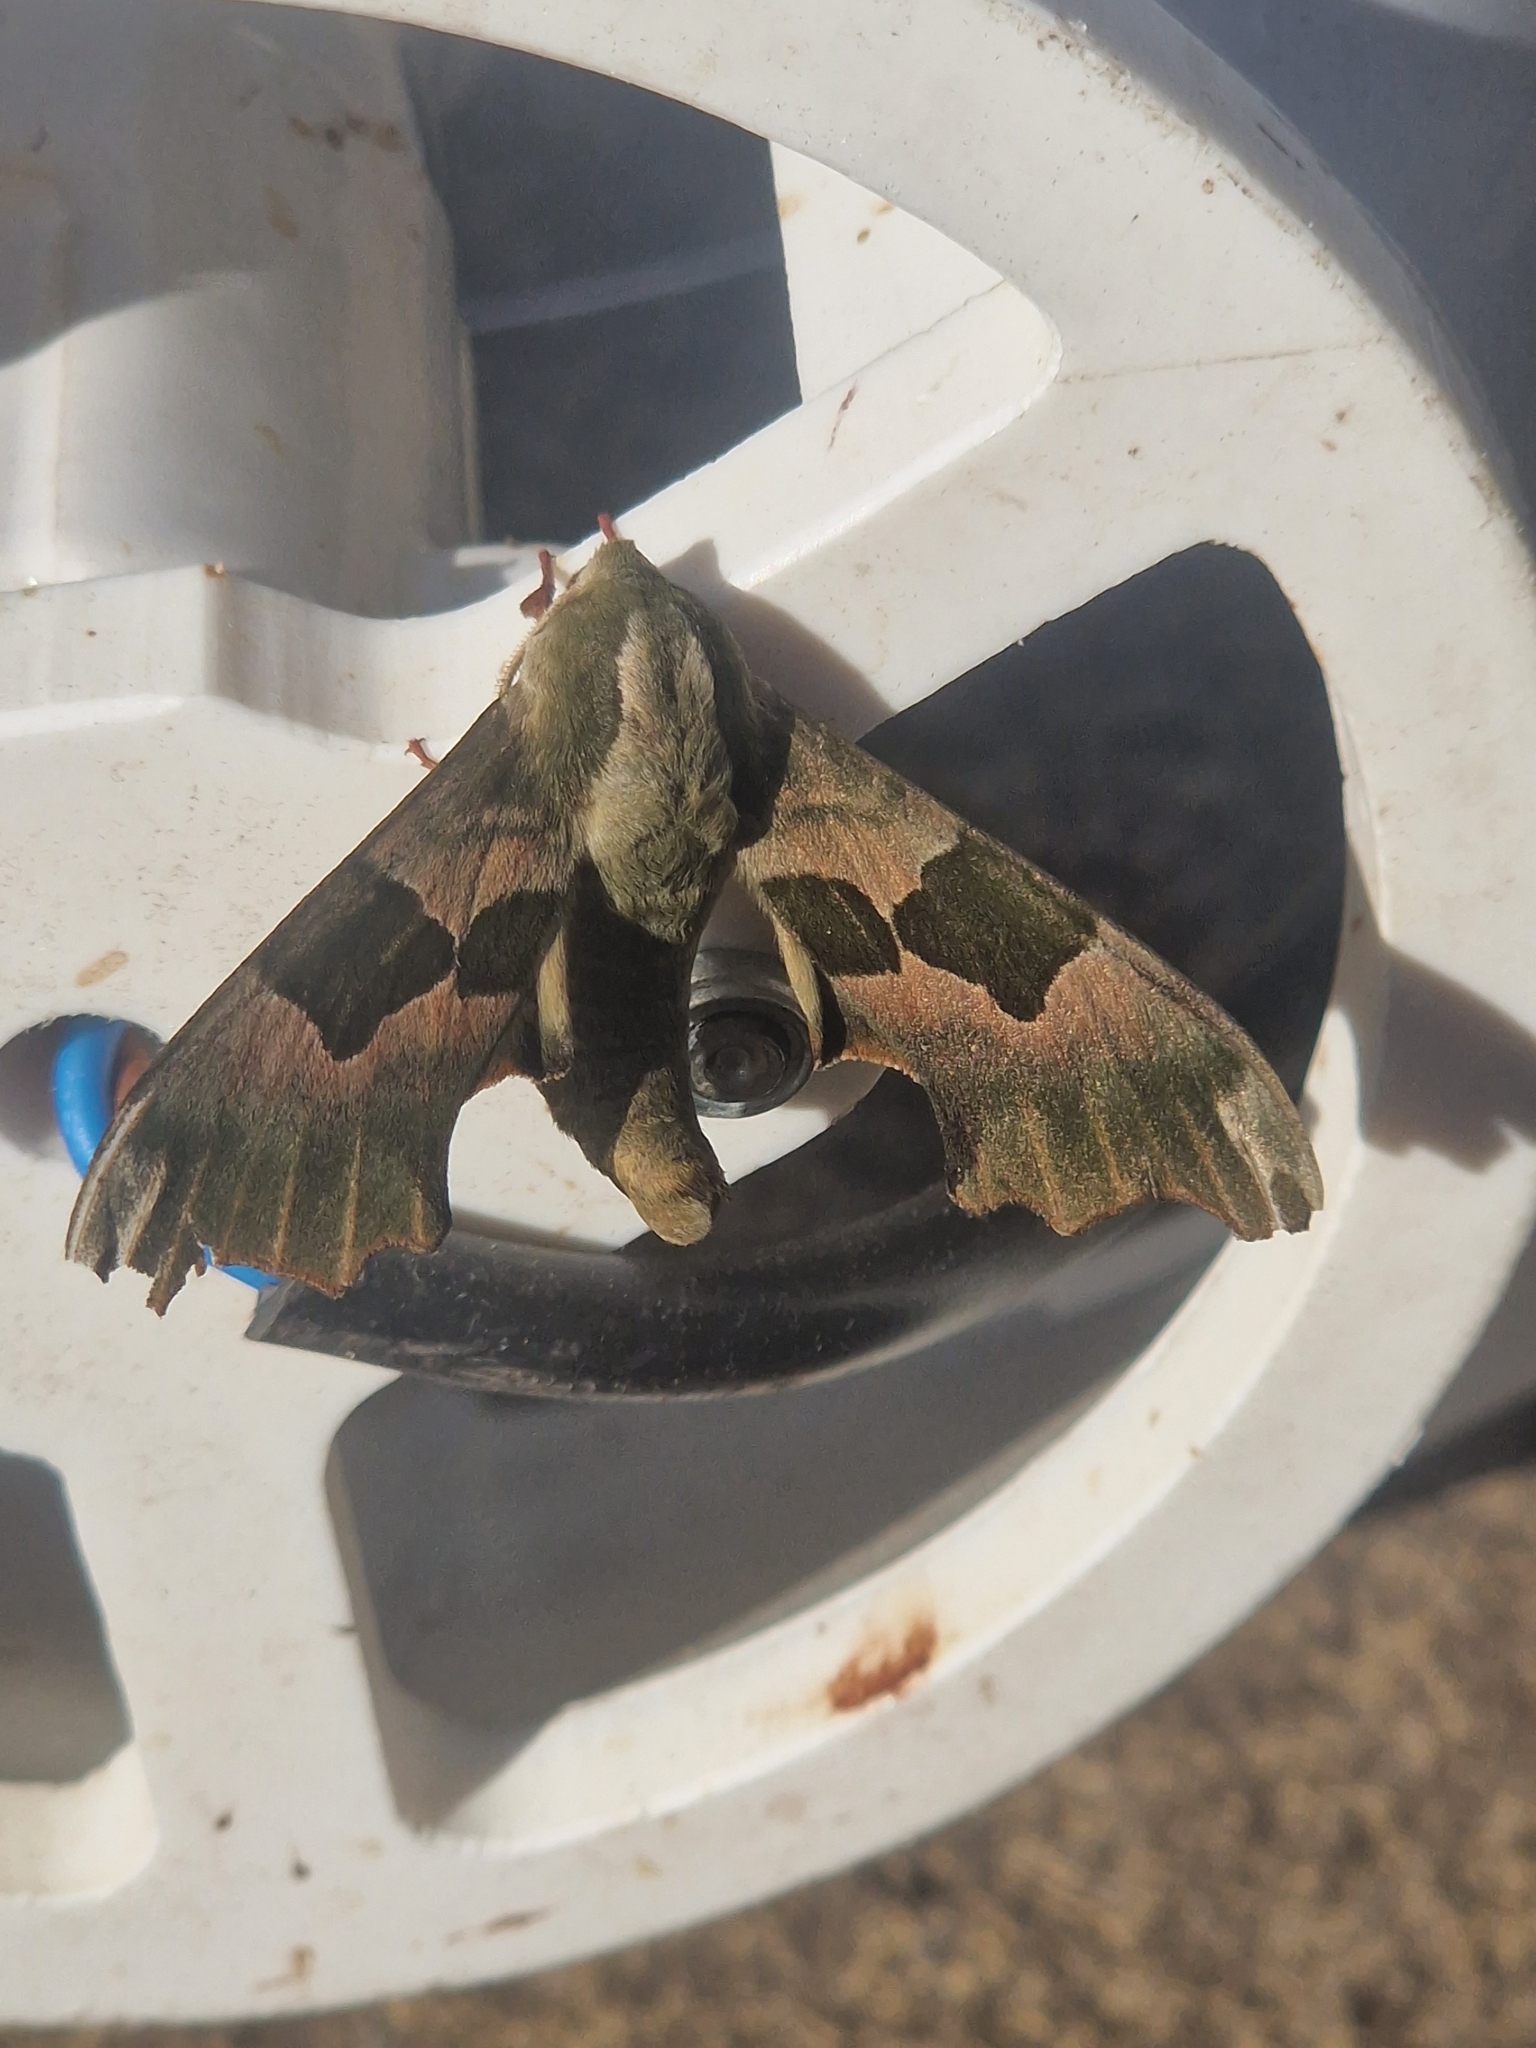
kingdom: Animalia
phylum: Arthropoda
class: Insecta
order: Lepidoptera
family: Sphingidae
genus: Mimas
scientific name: Mimas tiliae
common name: Lime hawk-moth
